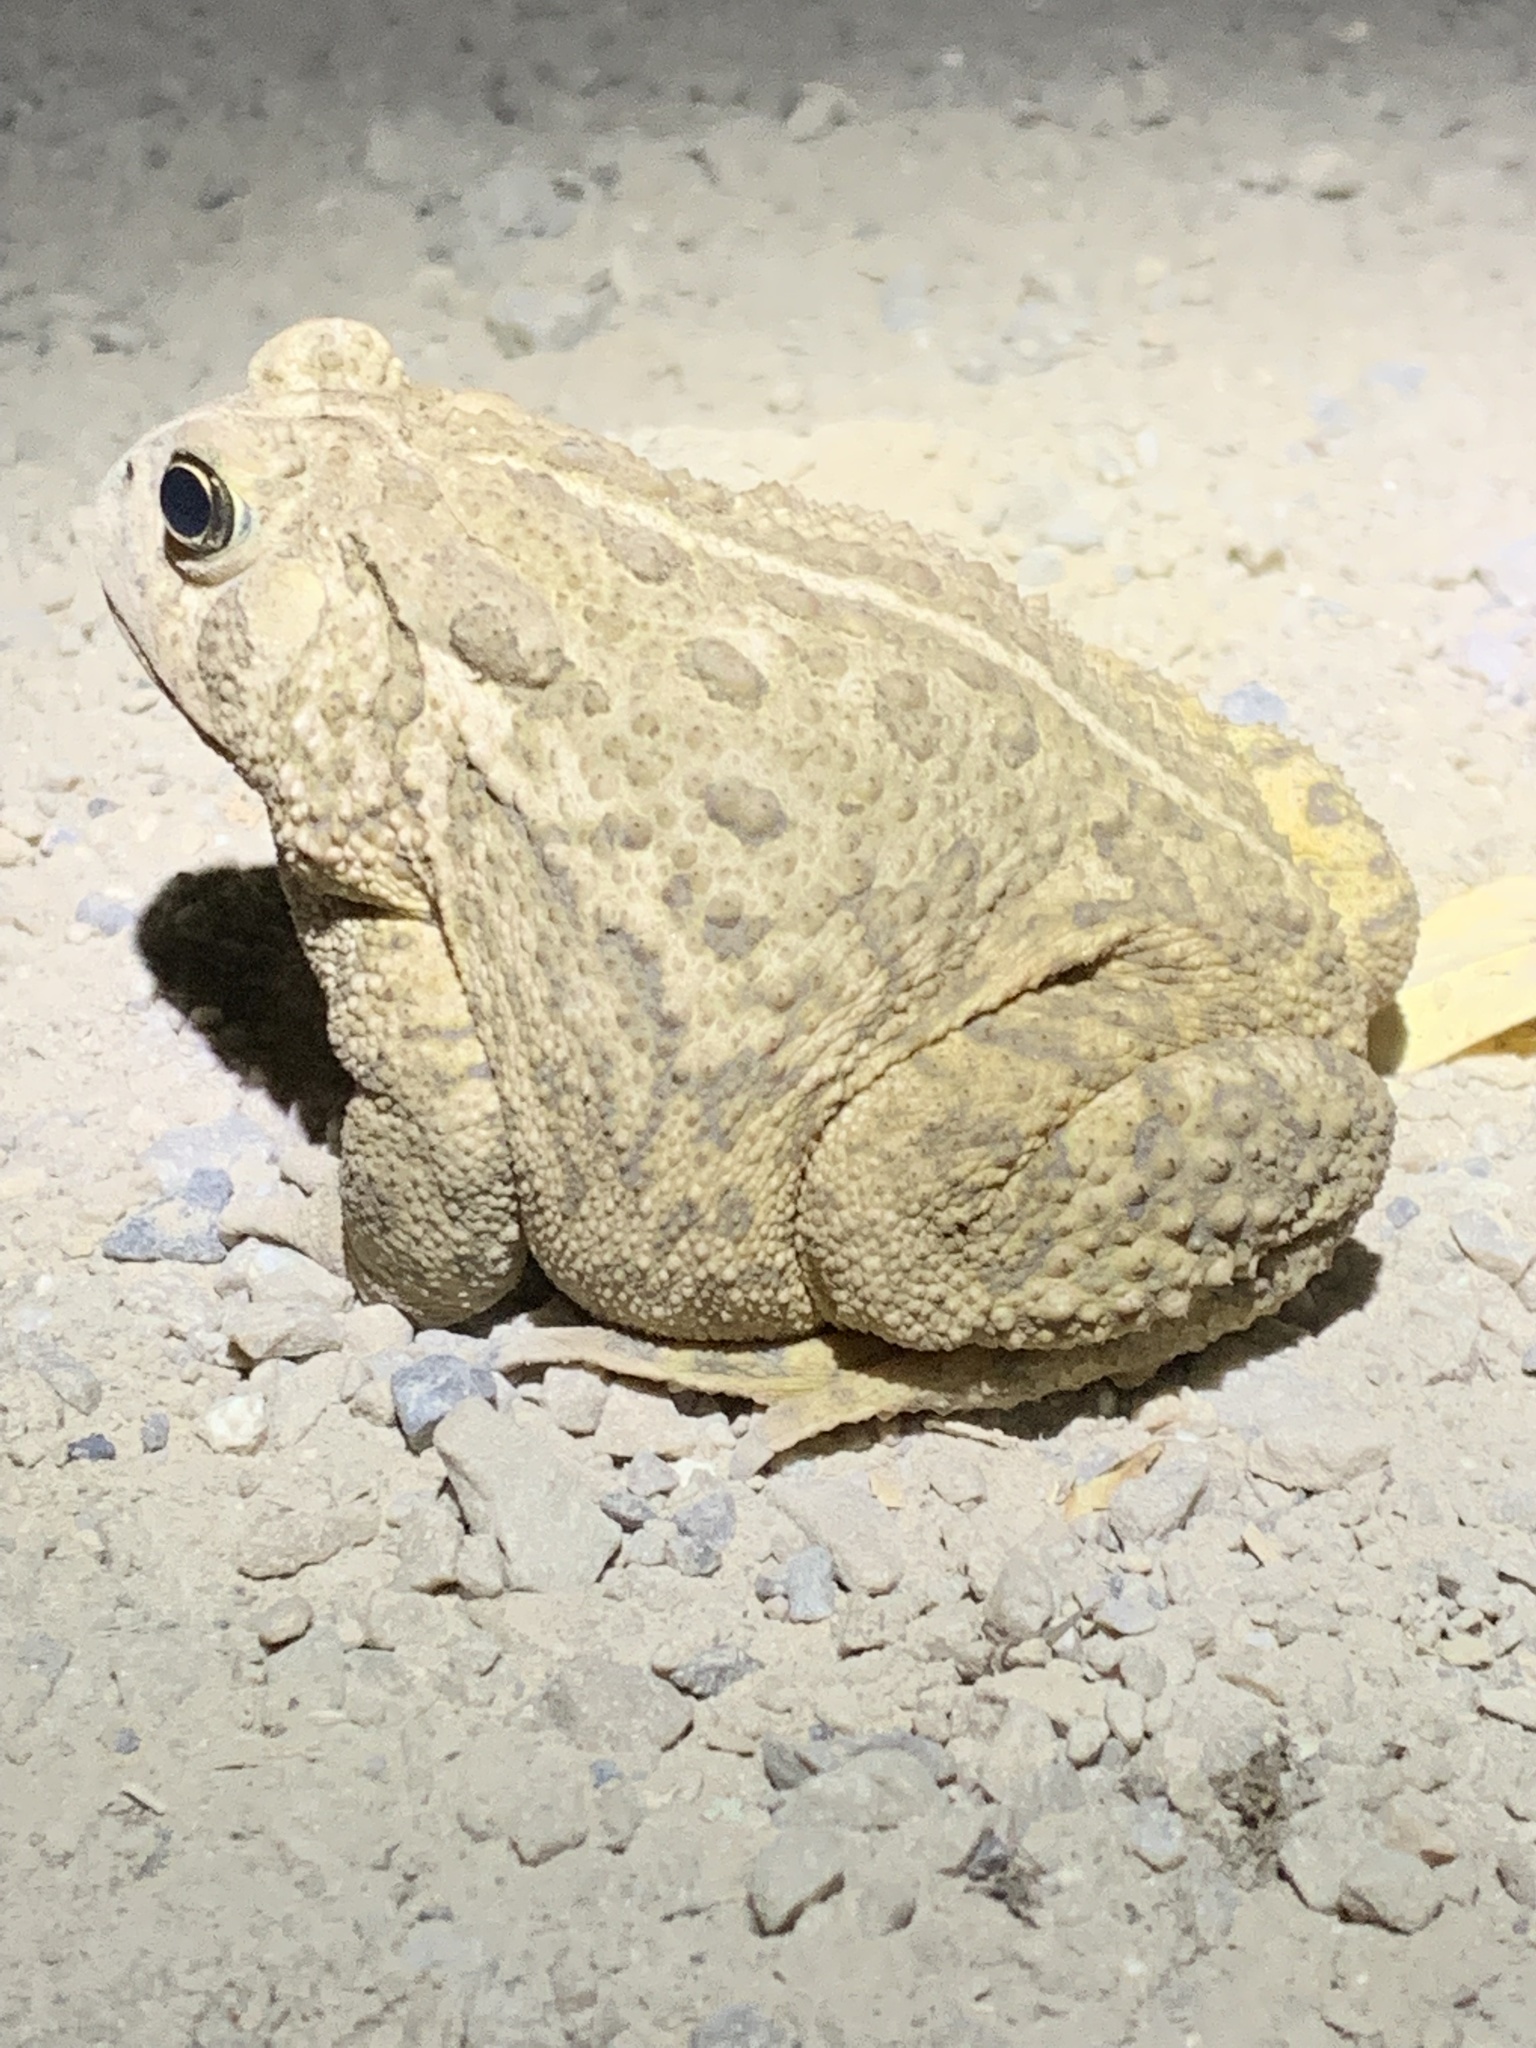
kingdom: Animalia
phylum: Chordata
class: Amphibia
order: Anura
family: Bufonidae
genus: Anaxyrus
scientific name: Anaxyrus woodhousii
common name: Woodhouse's toad
